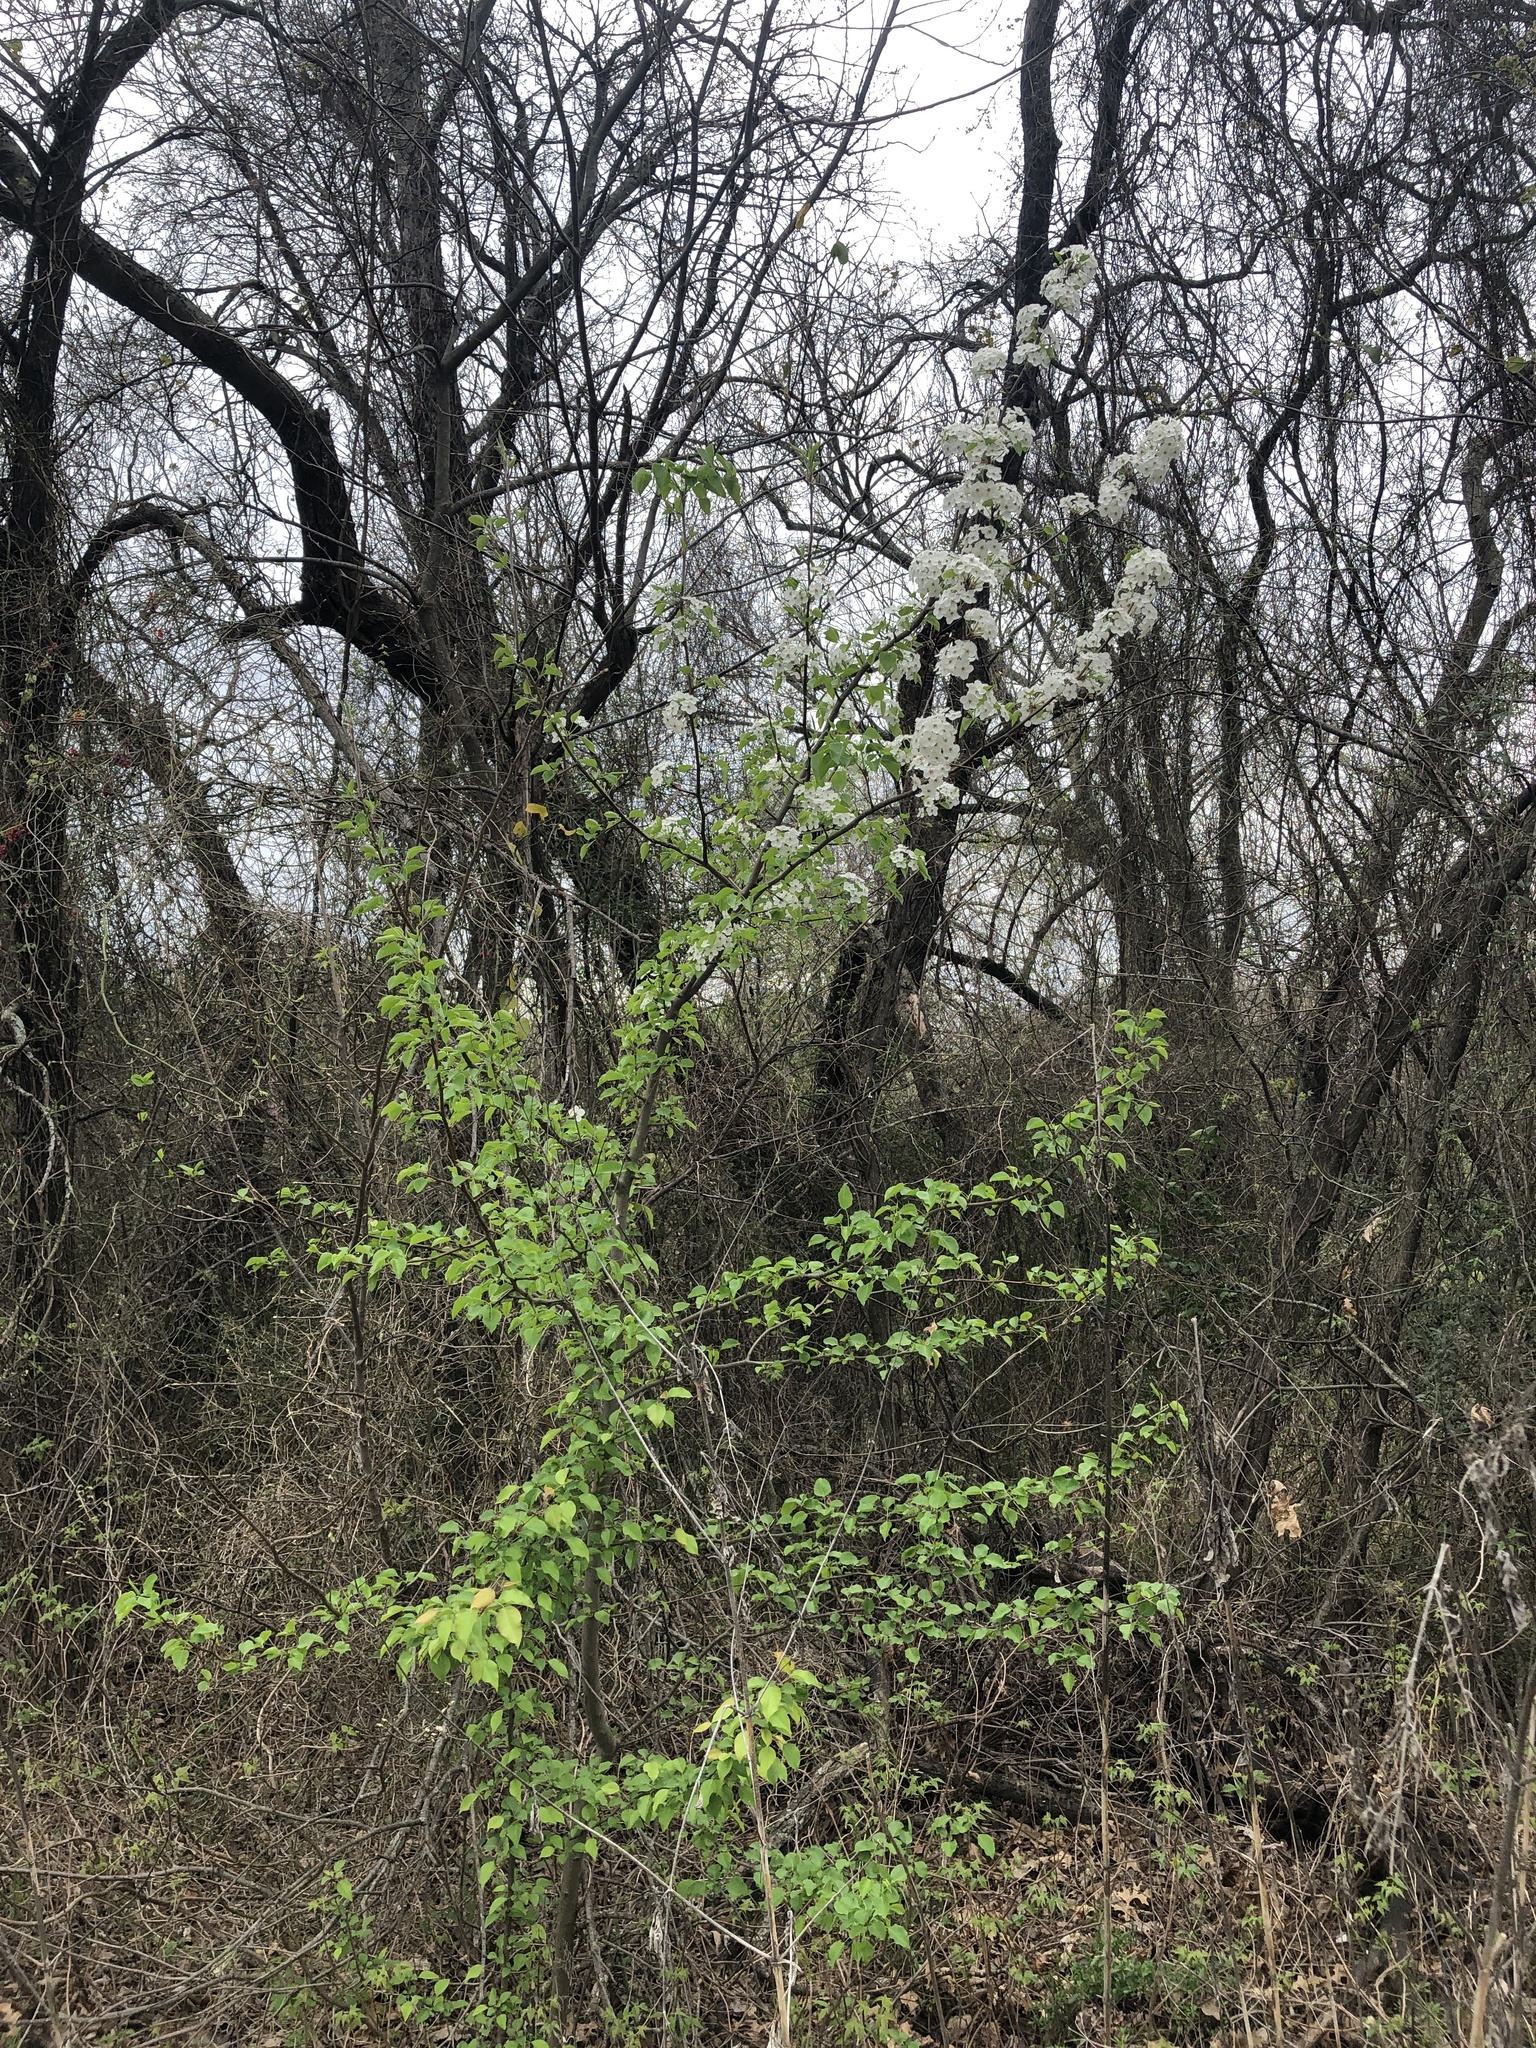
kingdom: Plantae
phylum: Tracheophyta
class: Magnoliopsida
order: Rosales
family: Rosaceae
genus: Pyrus
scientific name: Pyrus calleryana
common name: Callery pear
